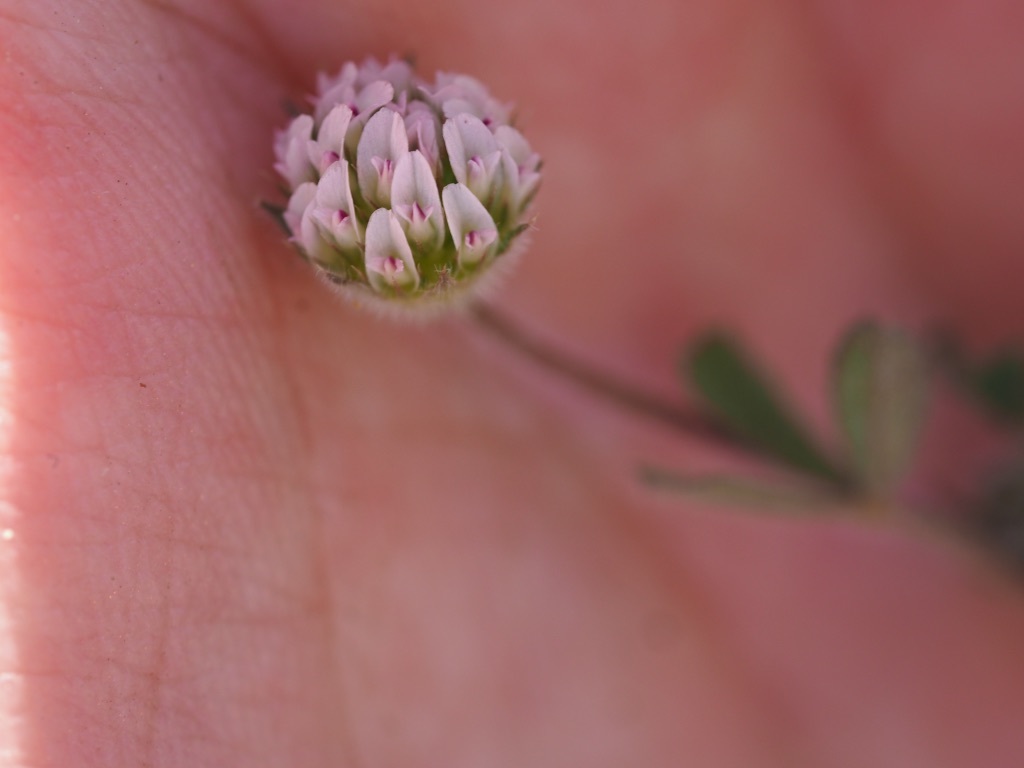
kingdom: Plantae
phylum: Tracheophyta
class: Magnoliopsida
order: Fabales
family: Fabaceae
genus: Trifolium
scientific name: Trifolium microcephalum
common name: Maiden clover
